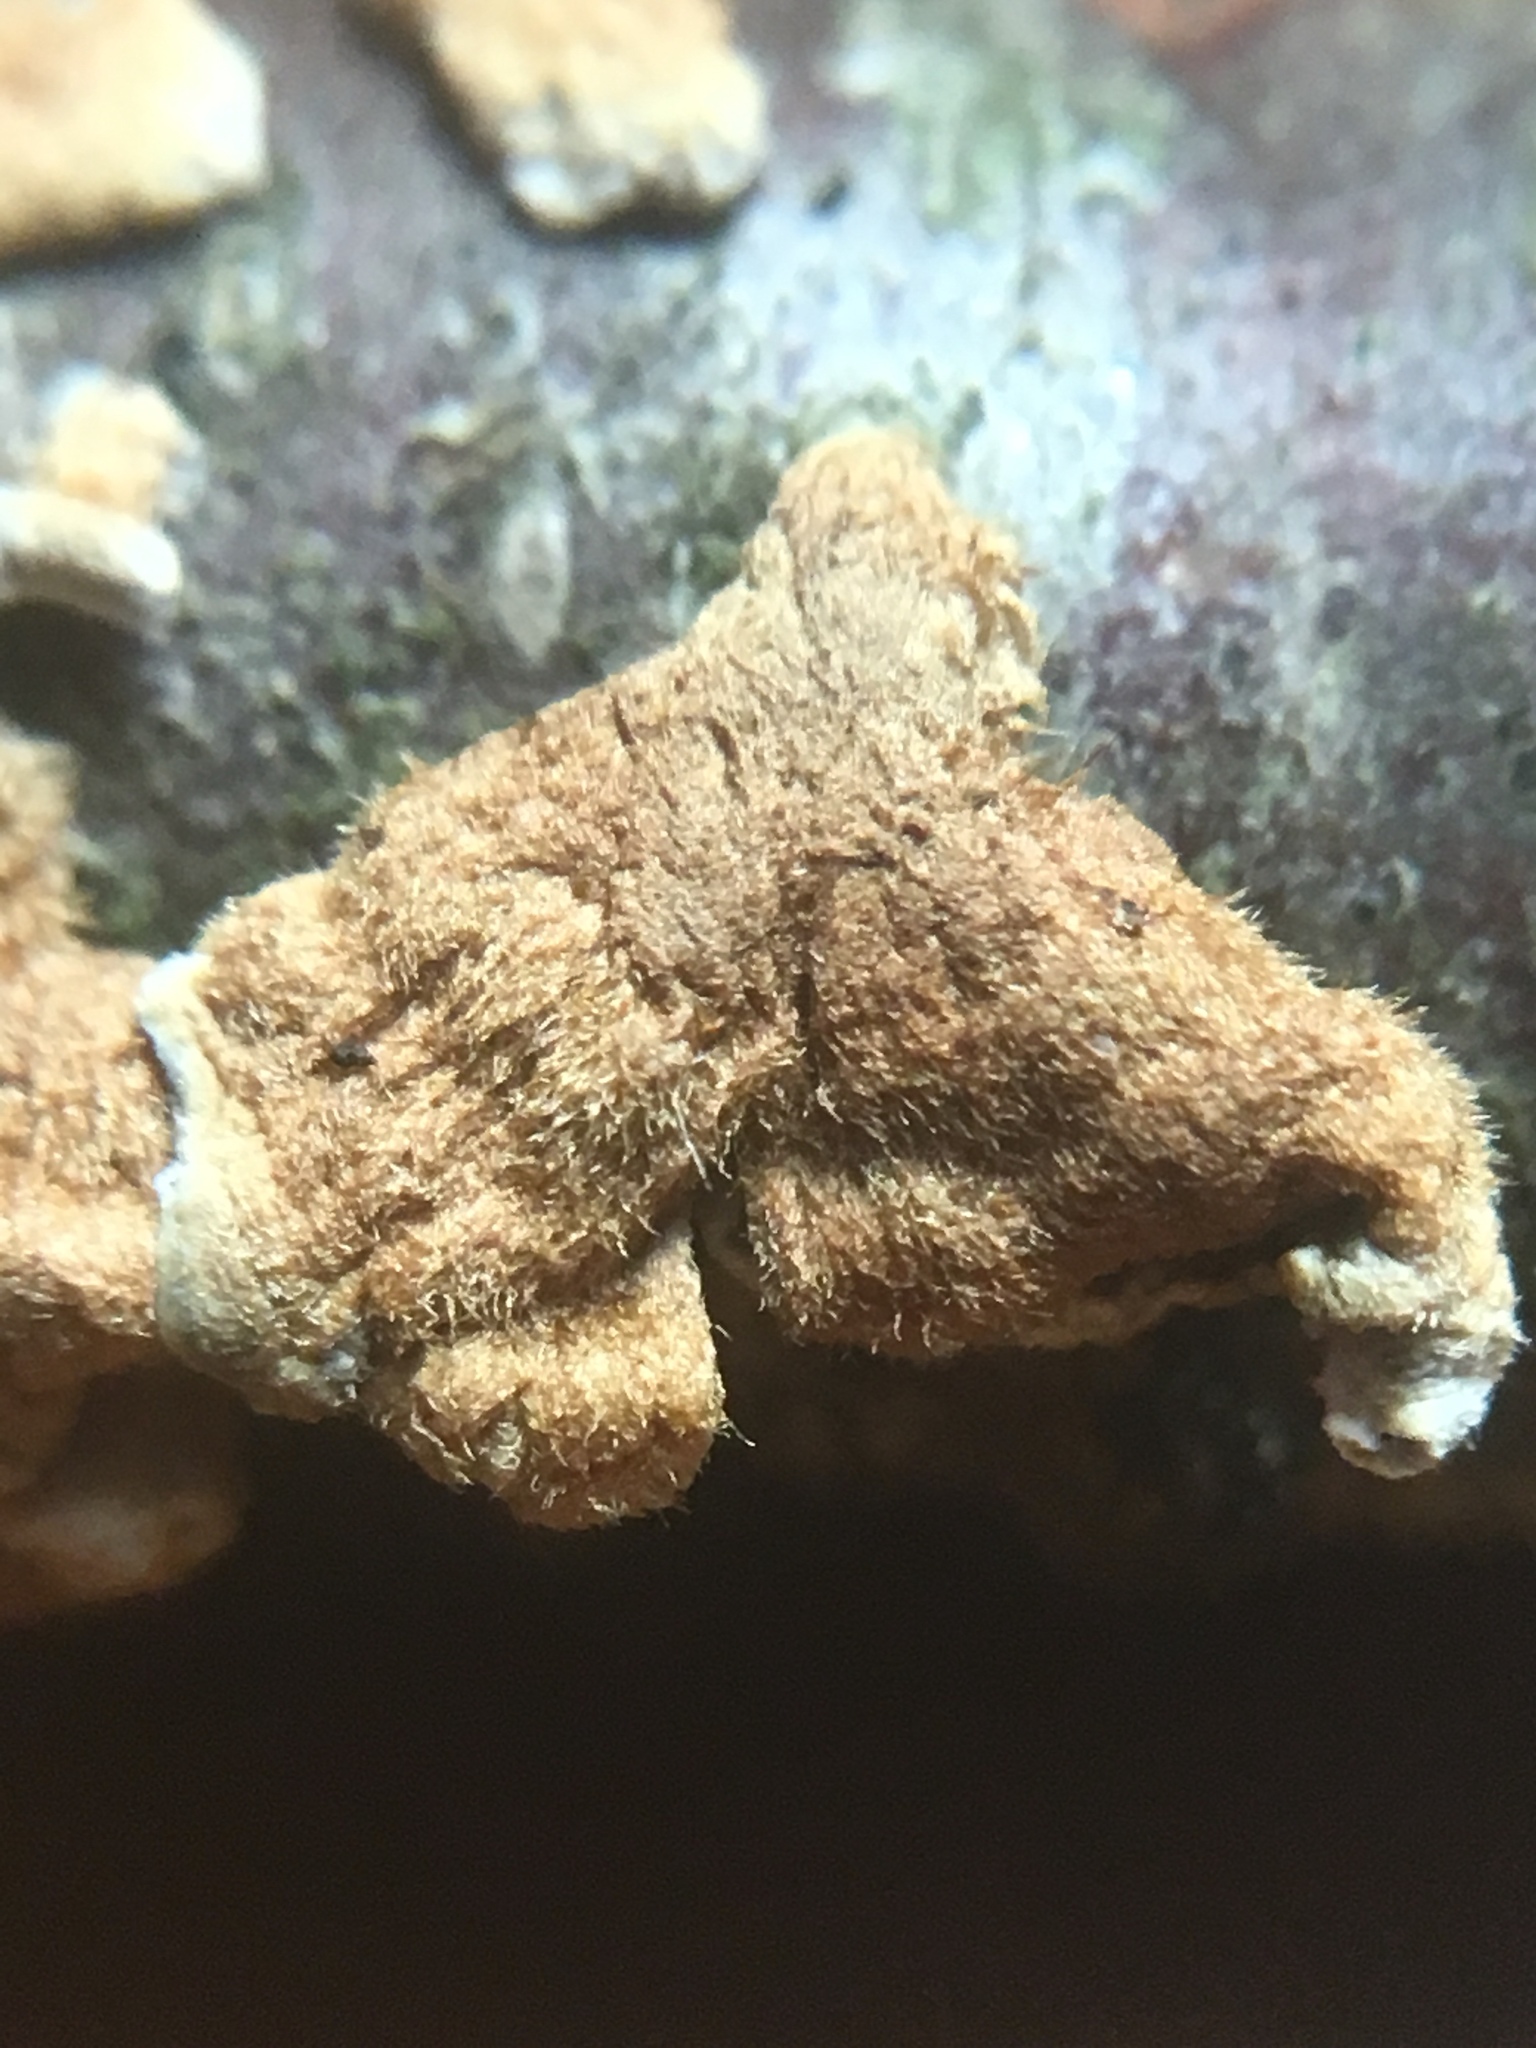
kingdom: Fungi
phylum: Basidiomycota
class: Agaricomycetes
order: Amylocorticiales
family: Amylocorticiaceae
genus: Plicaturopsis
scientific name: Plicaturopsis crispa
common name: Crimped gill
